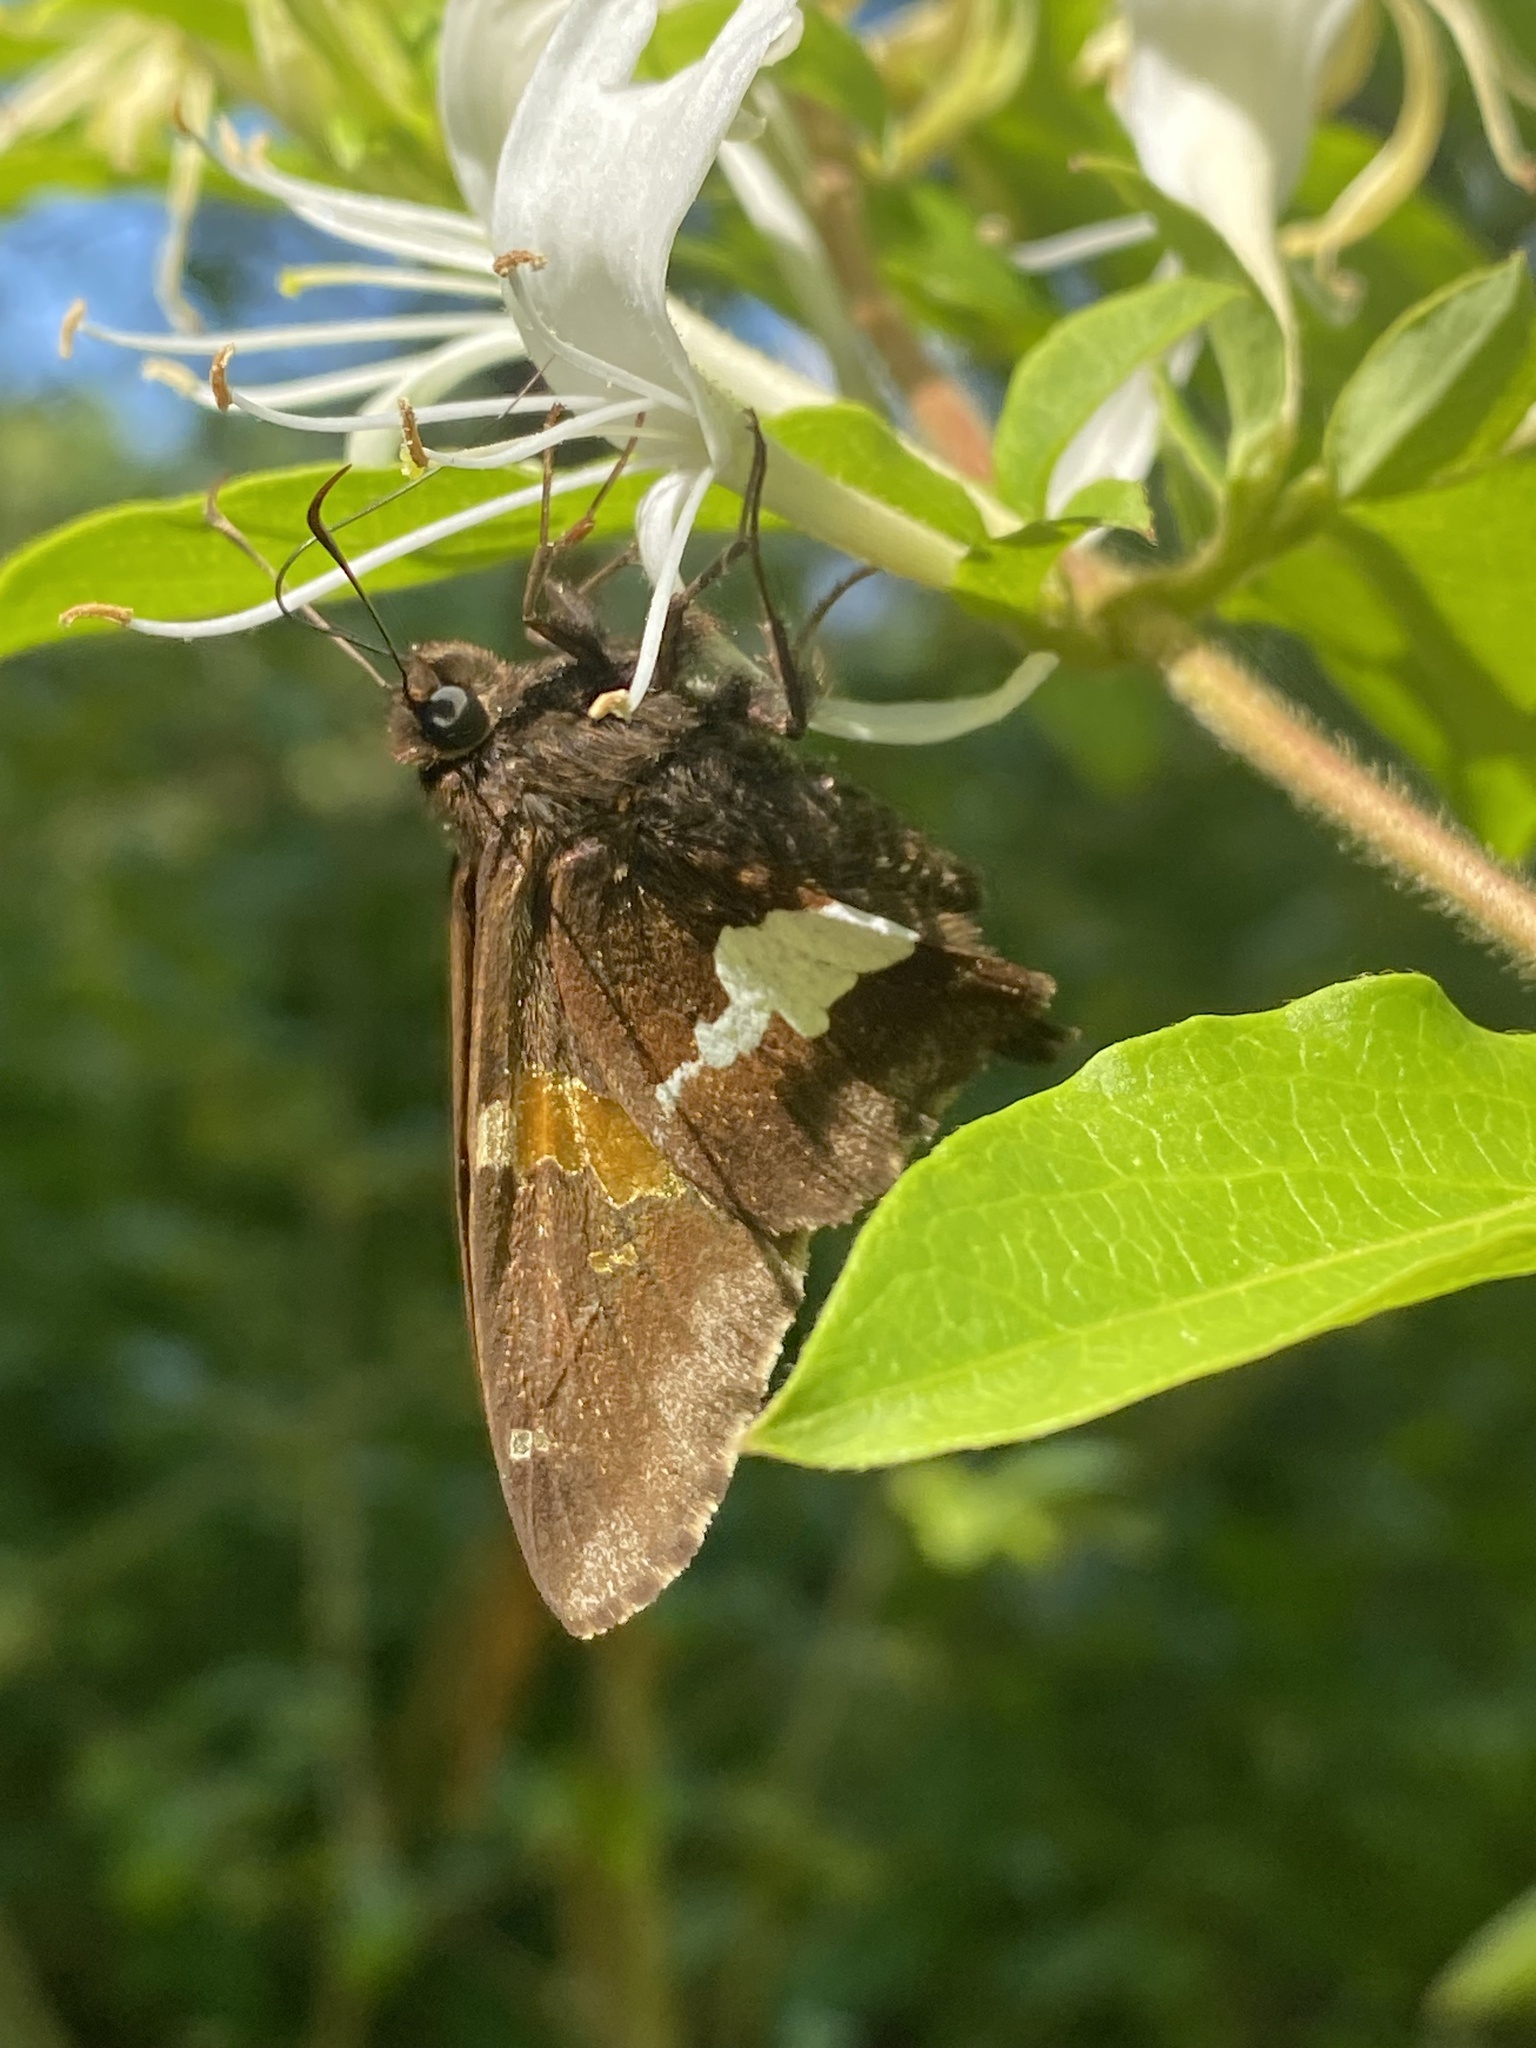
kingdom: Animalia
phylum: Arthropoda
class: Insecta
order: Lepidoptera
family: Hesperiidae
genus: Epargyreus
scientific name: Epargyreus clarus
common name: Silver-spotted skipper
